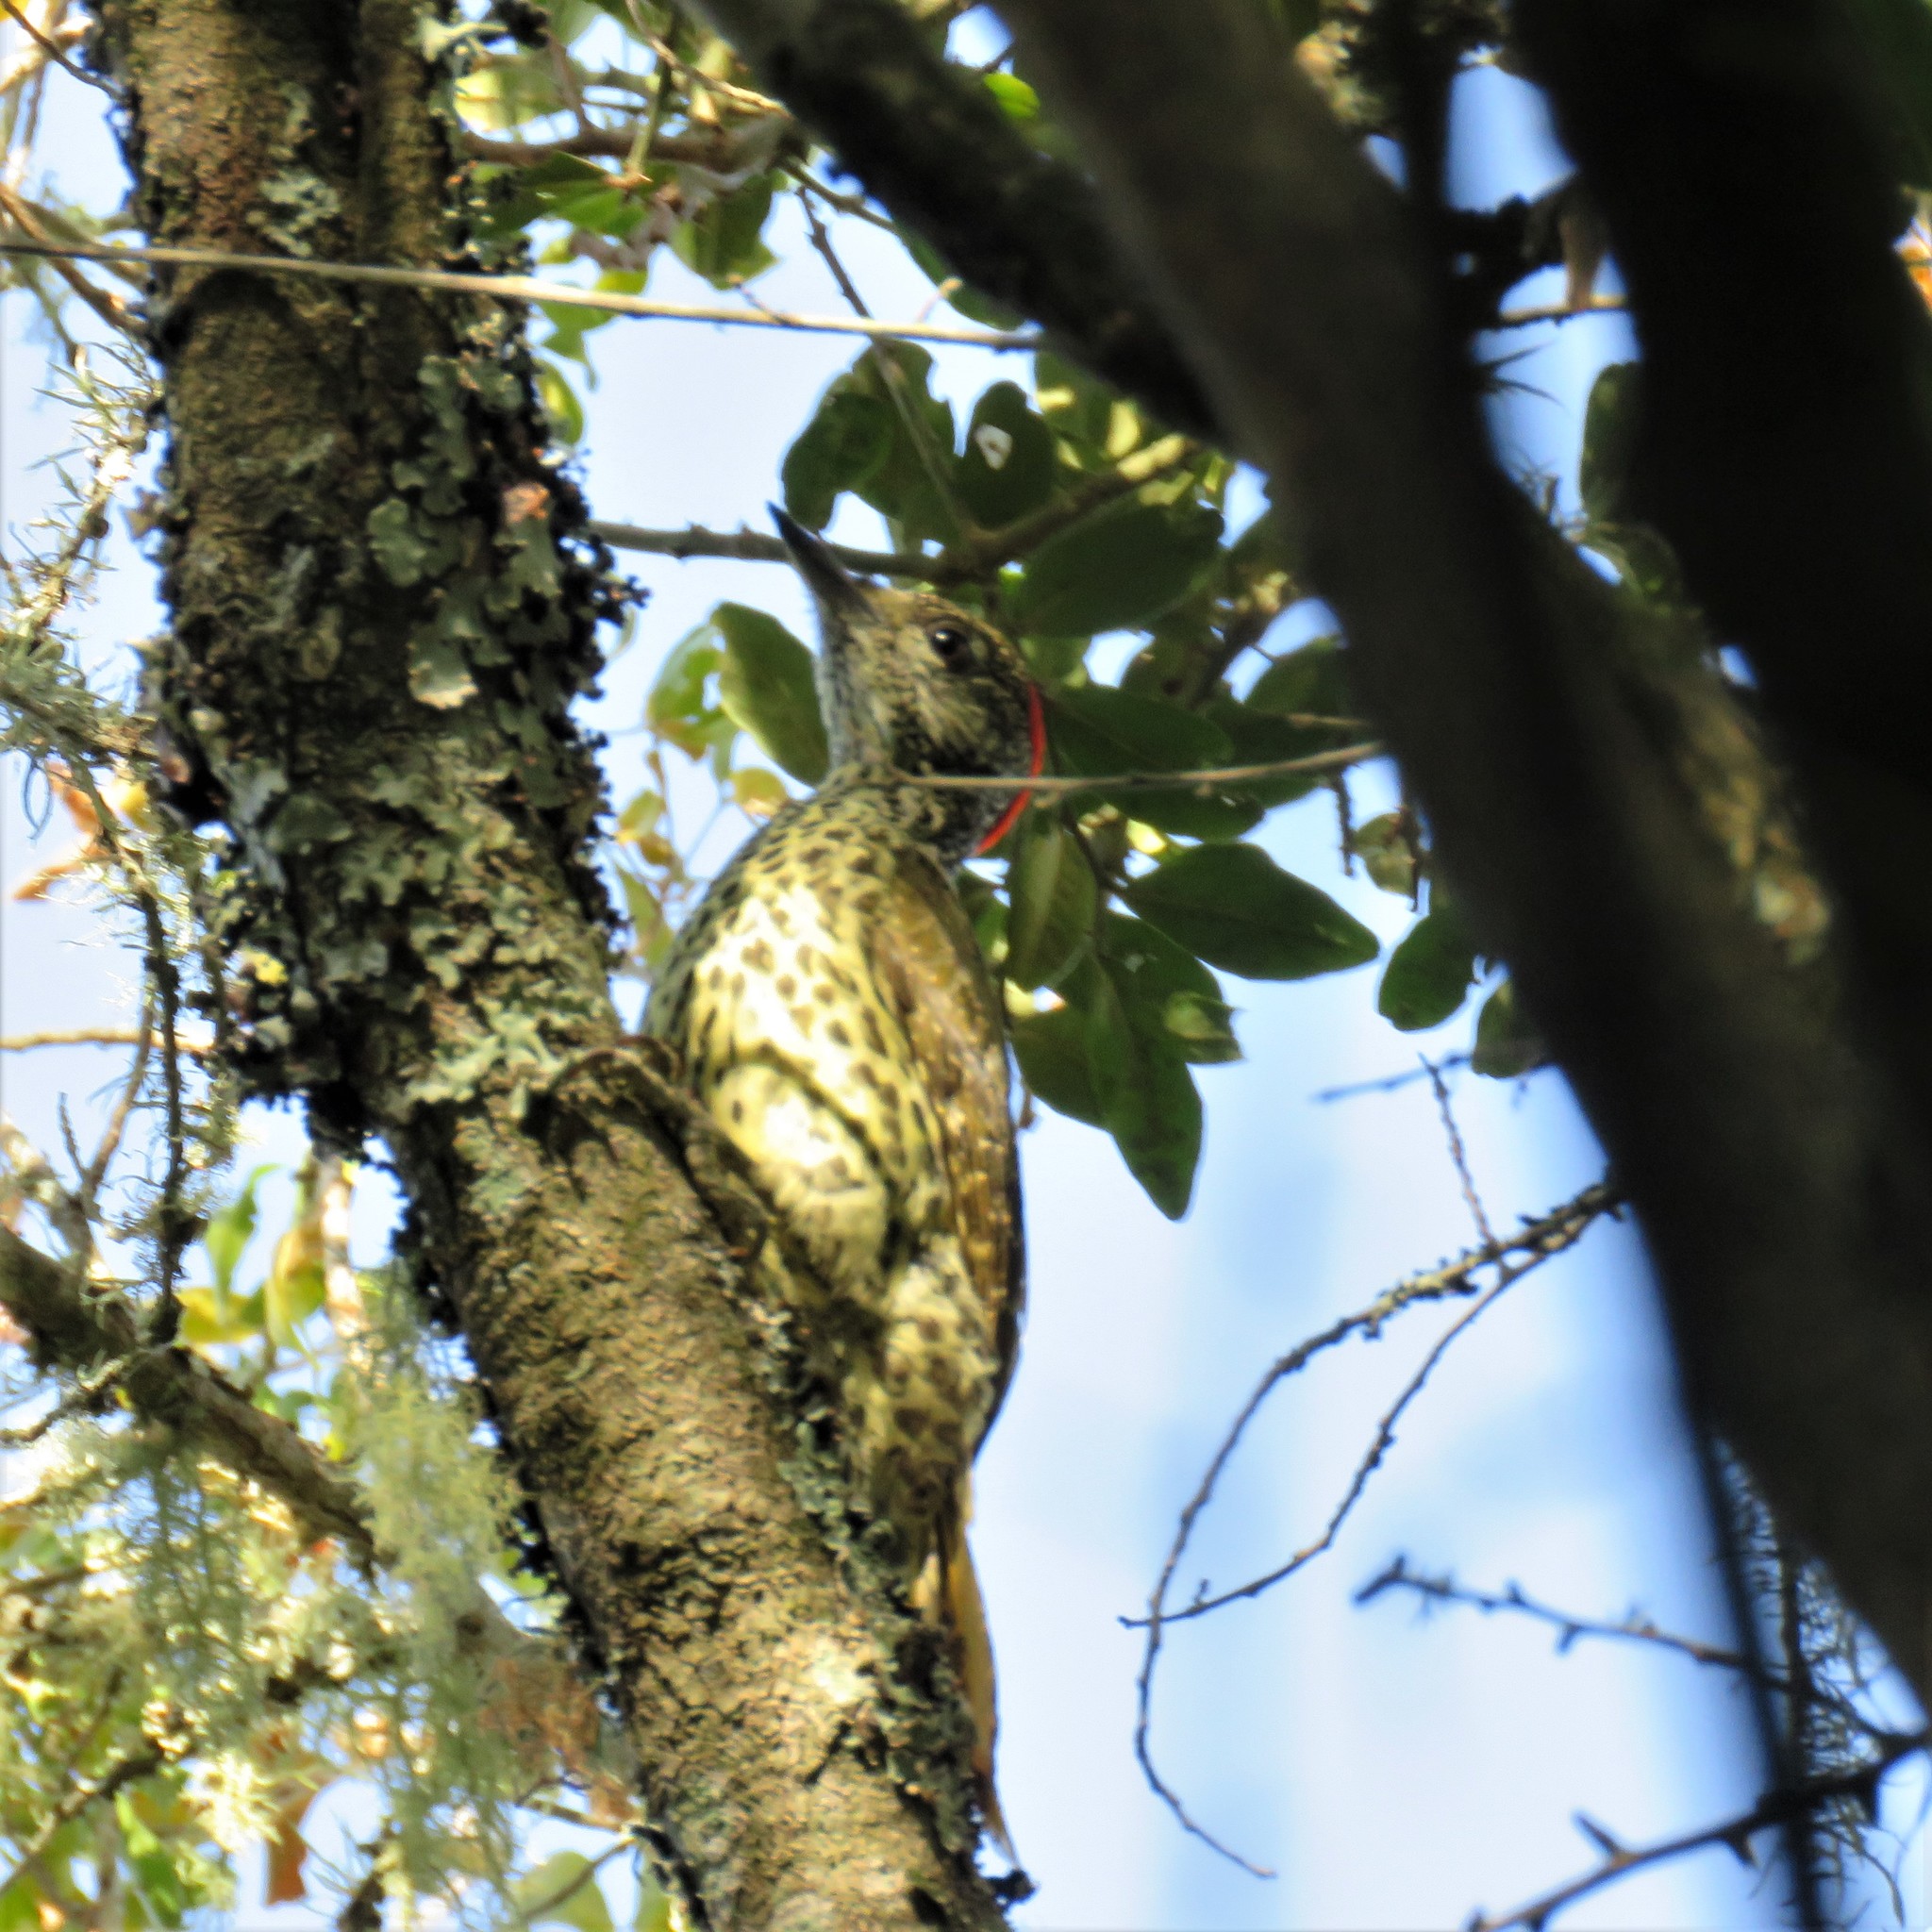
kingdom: Animalia
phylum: Chordata
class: Aves
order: Piciformes
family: Picidae
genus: Campethera
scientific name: Campethera notata
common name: Knysna woodpecker
